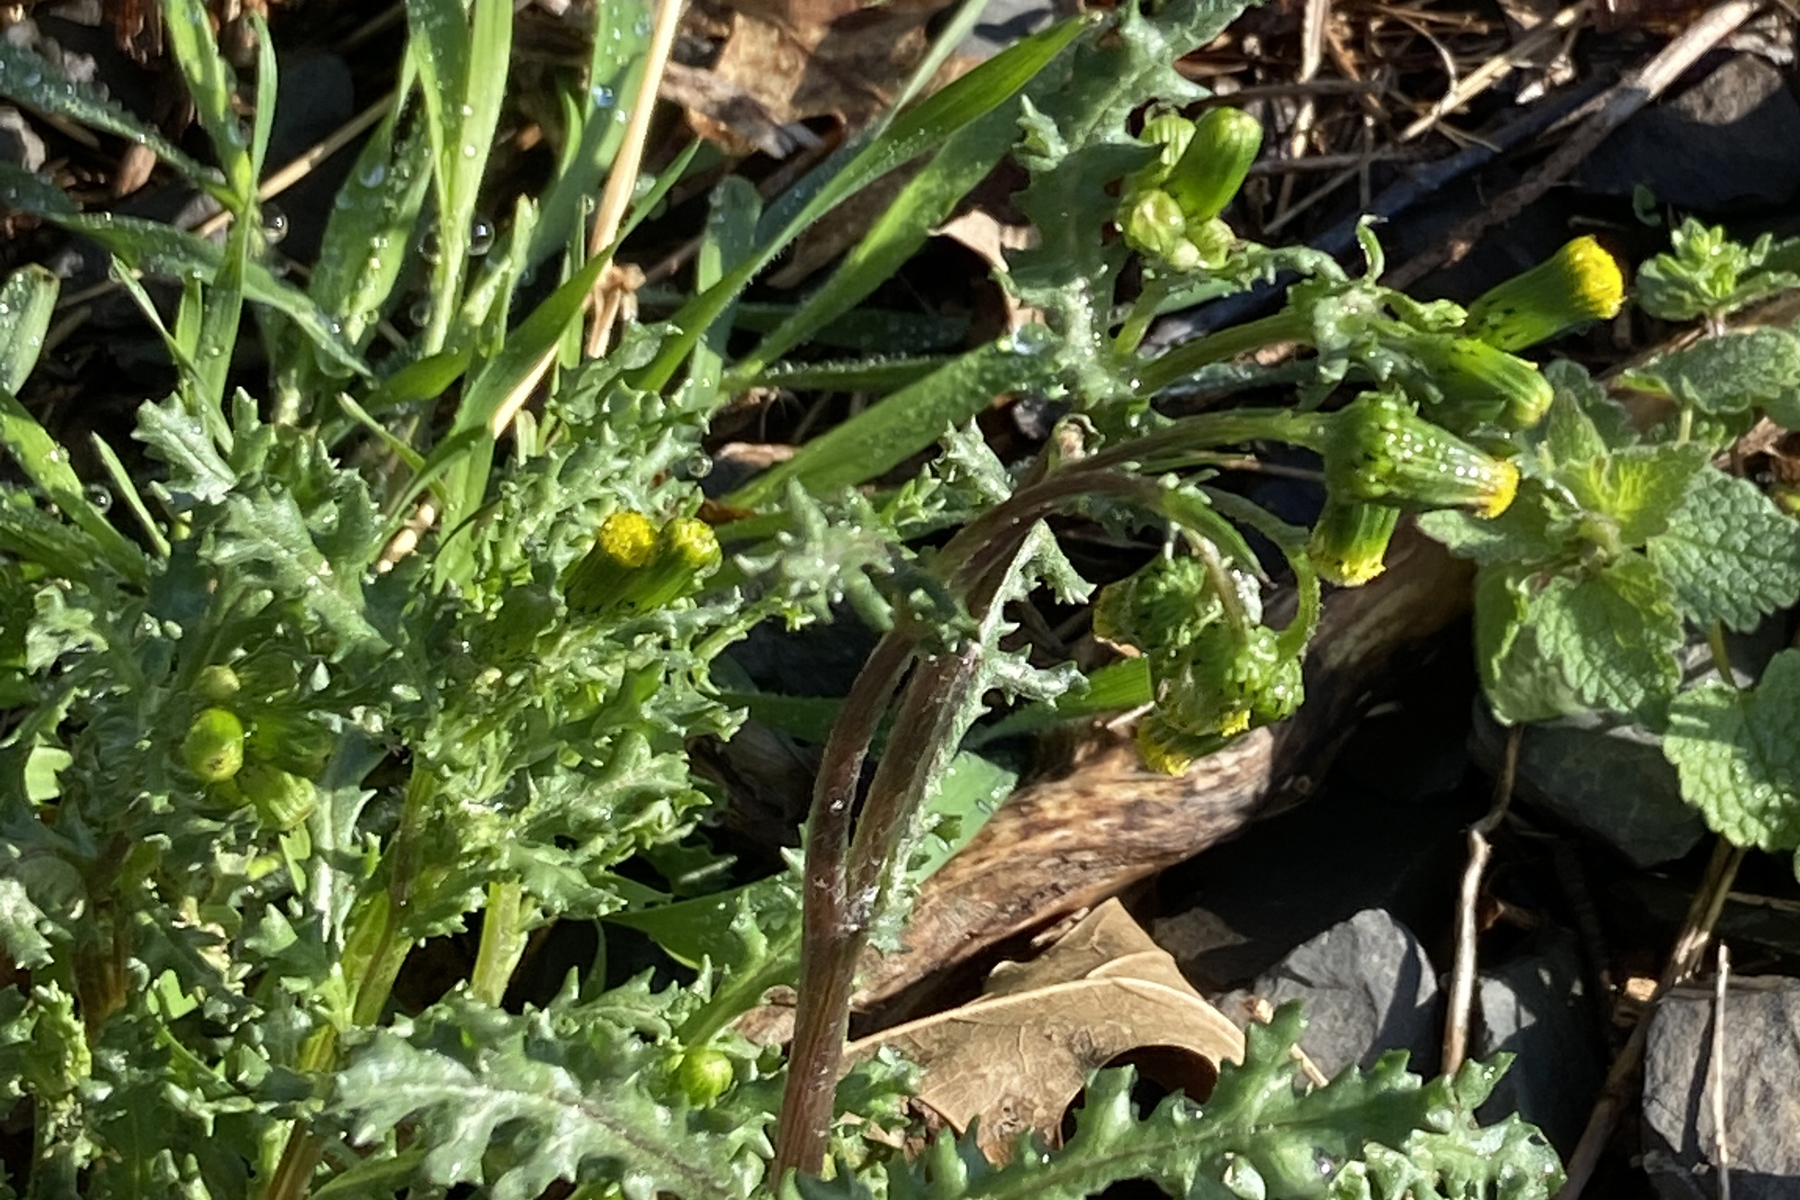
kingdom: Plantae
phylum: Tracheophyta
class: Magnoliopsida
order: Asterales
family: Asteraceae
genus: Senecio
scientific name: Senecio vulgaris
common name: Old-man-in-the-spring
